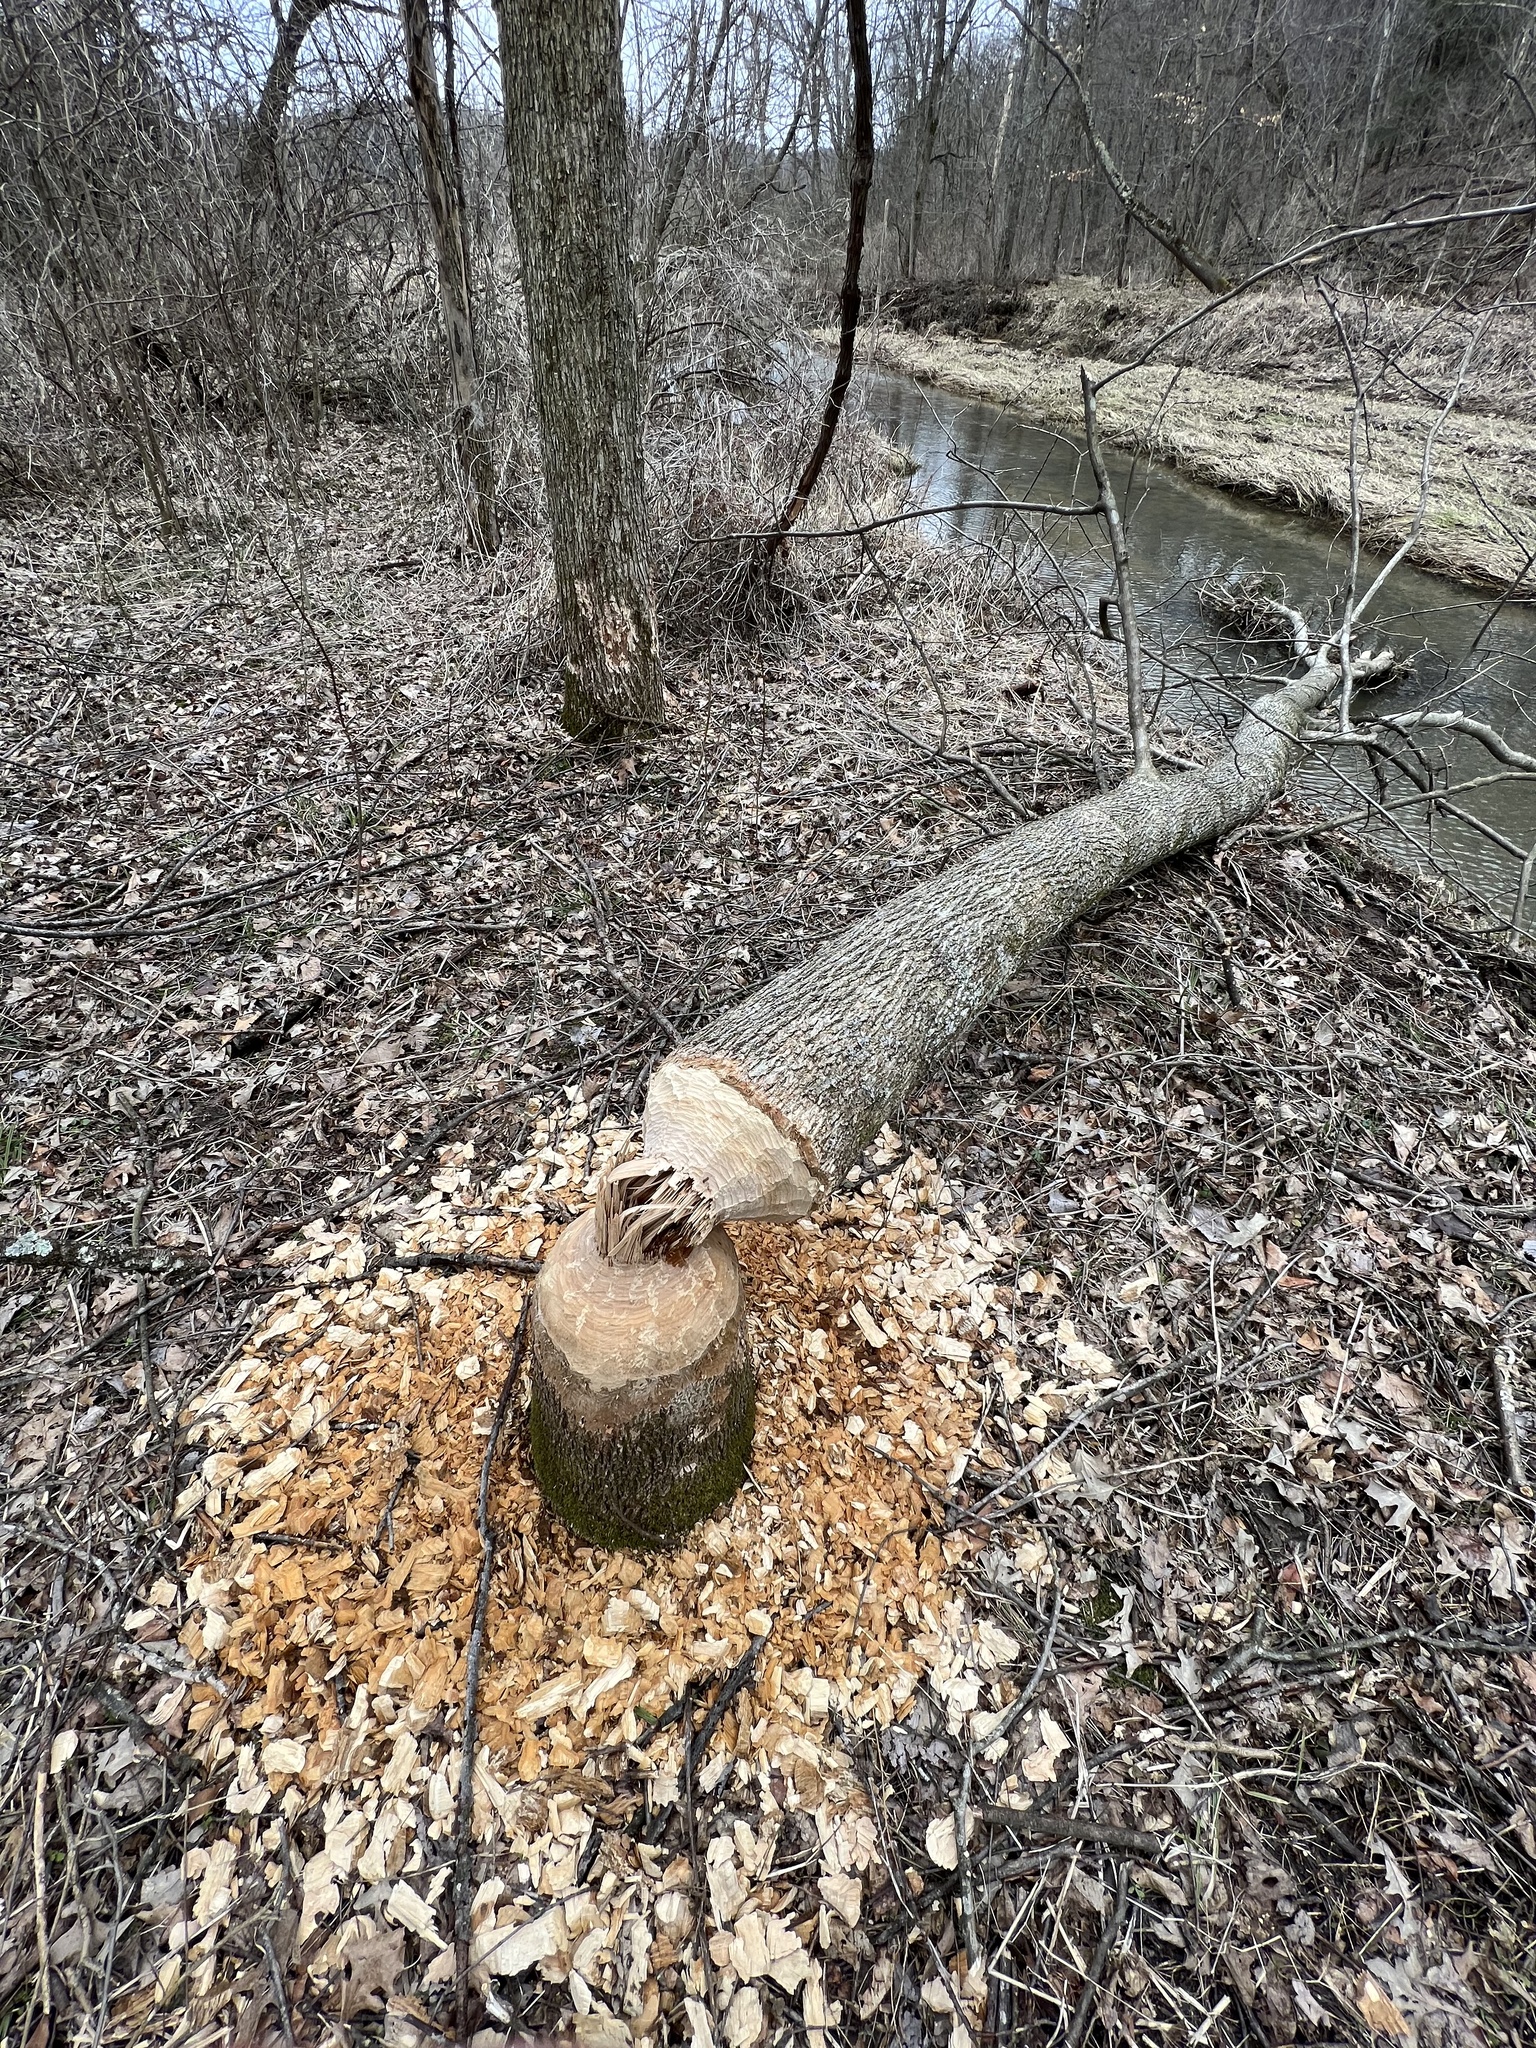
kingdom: Animalia
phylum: Chordata
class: Mammalia
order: Rodentia
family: Castoridae
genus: Castor
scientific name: Castor canadensis
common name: American beaver
